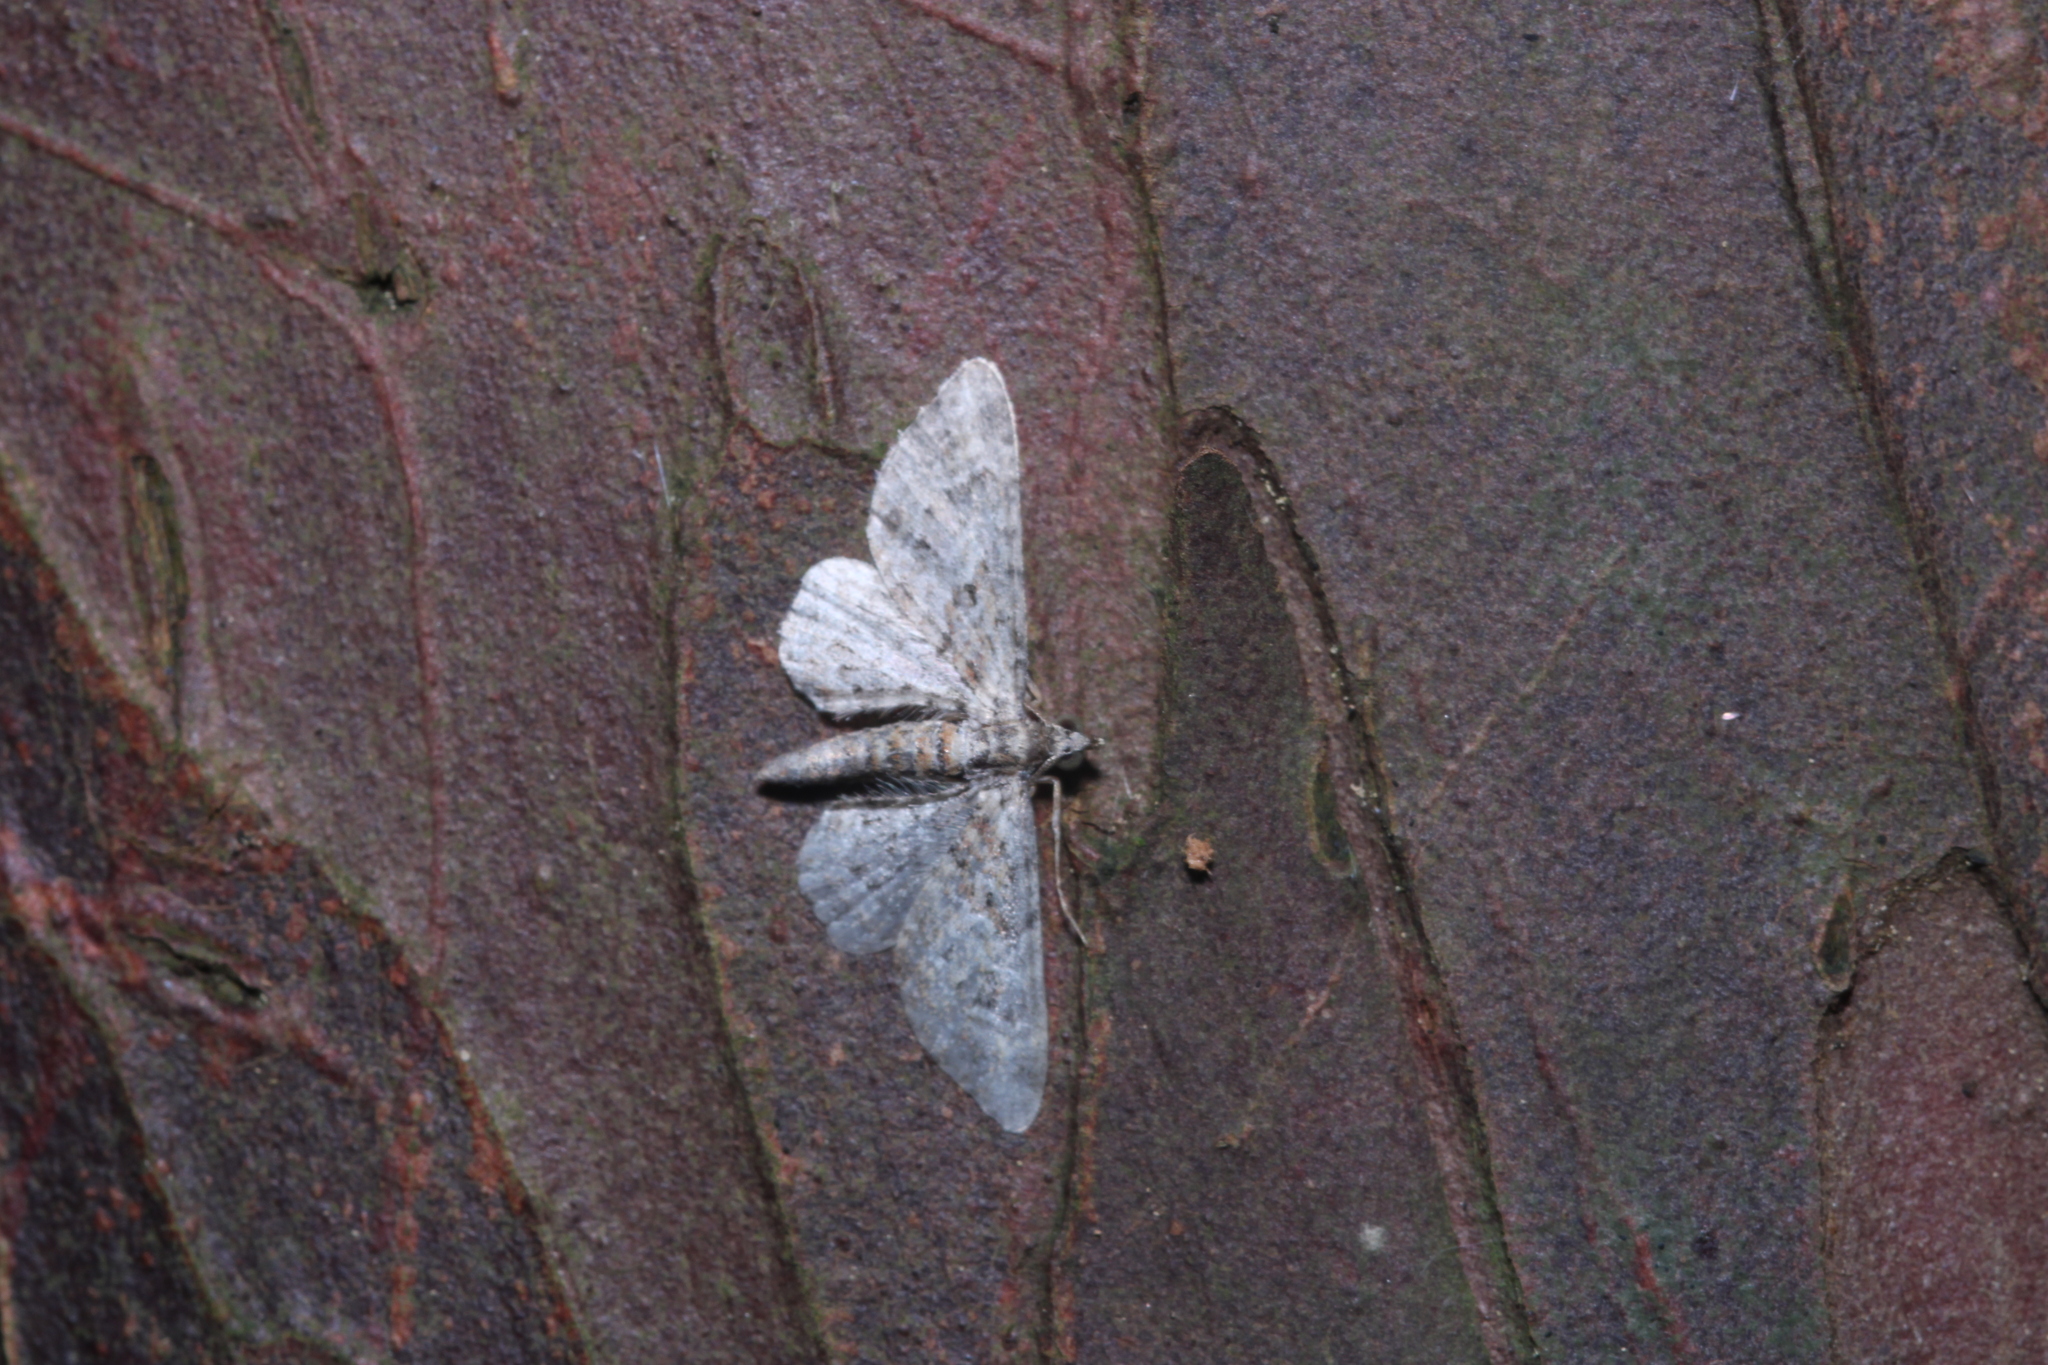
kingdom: Animalia
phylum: Arthropoda
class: Insecta
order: Lepidoptera
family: Geometridae
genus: Gymnoscelis
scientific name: Gymnoscelis rufifasciata
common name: Double-striped pug
